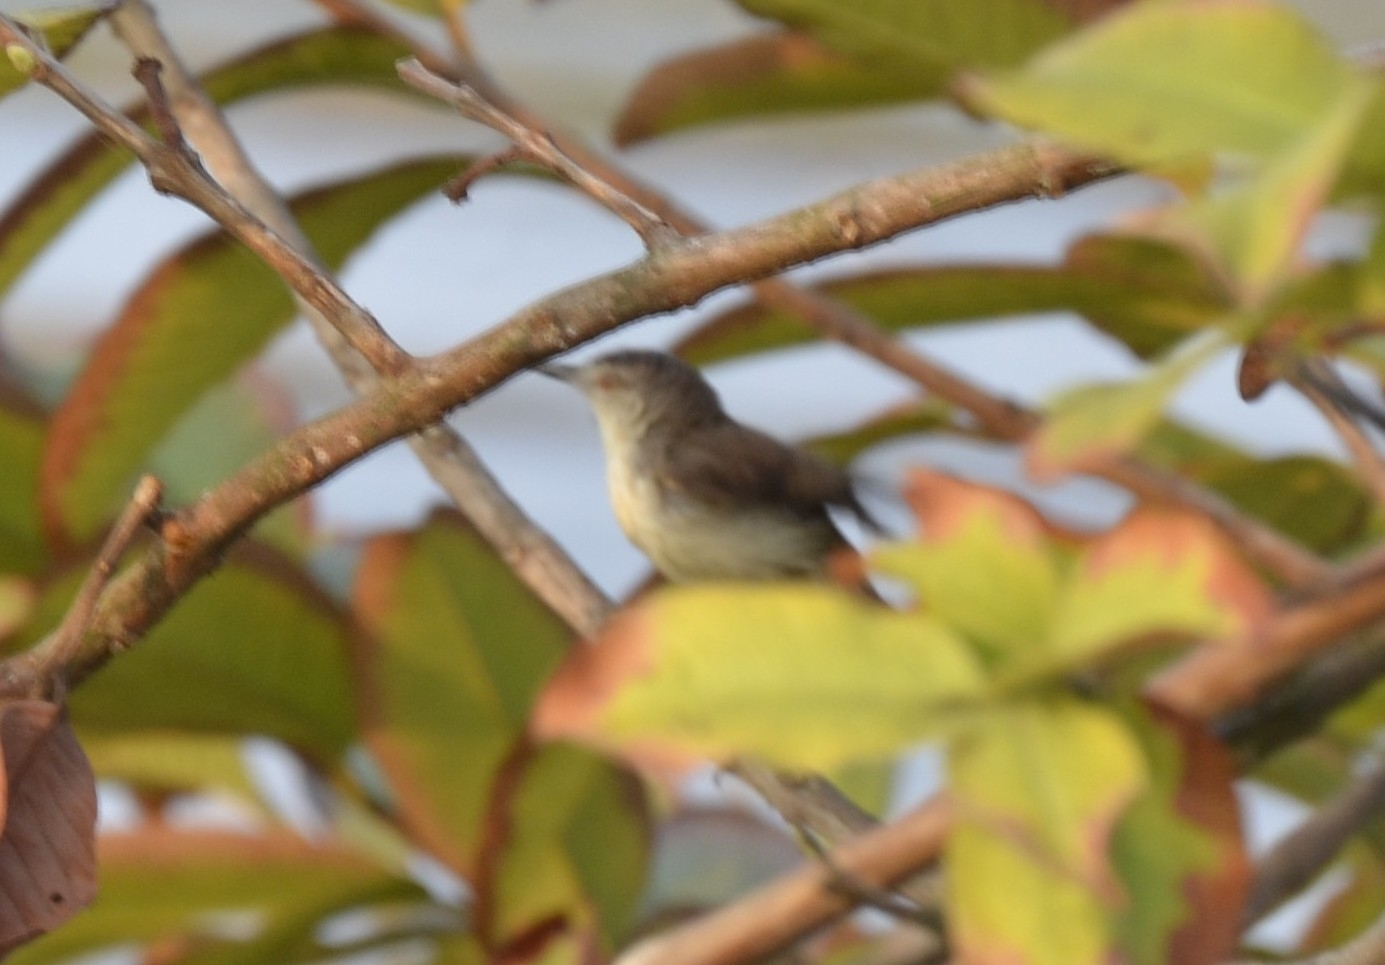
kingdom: Animalia
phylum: Chordata
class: Aves
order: Passeriformes
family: Cisticolidae
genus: Prinia
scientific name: Prinia inornata
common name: Plain prinia
